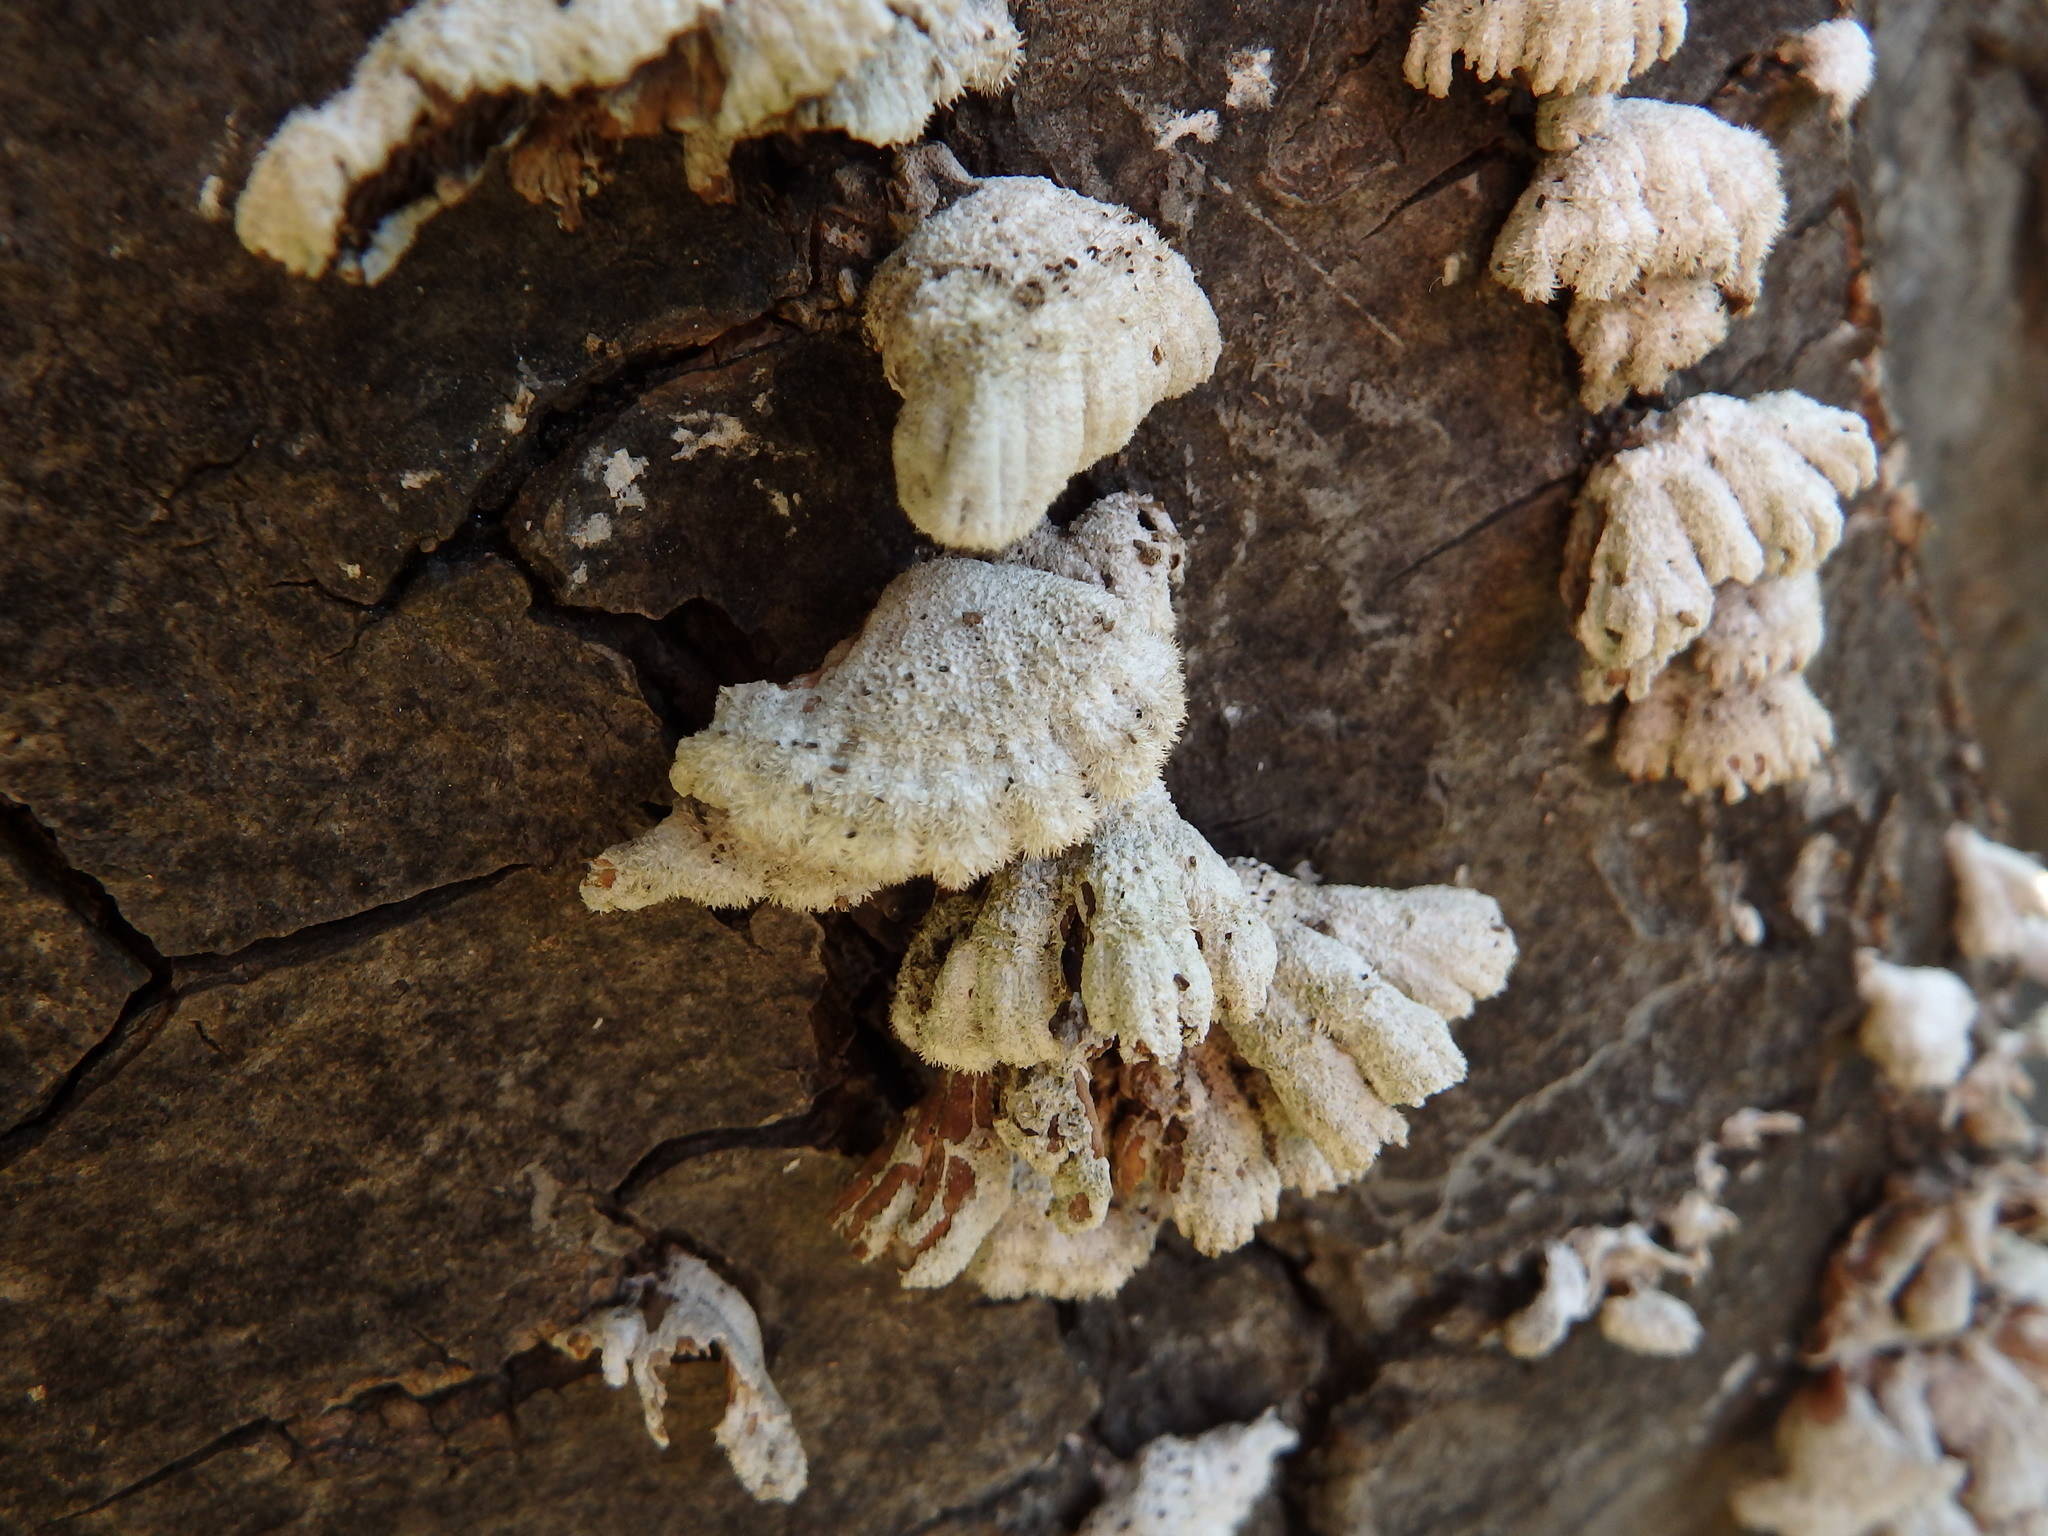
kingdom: Fungi
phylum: Basidiomycota
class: Agaricomycetes
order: Agaricales
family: Schizophyllaceae
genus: Schizophyllum
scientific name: Schizophyllum commune
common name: Common porecrust
